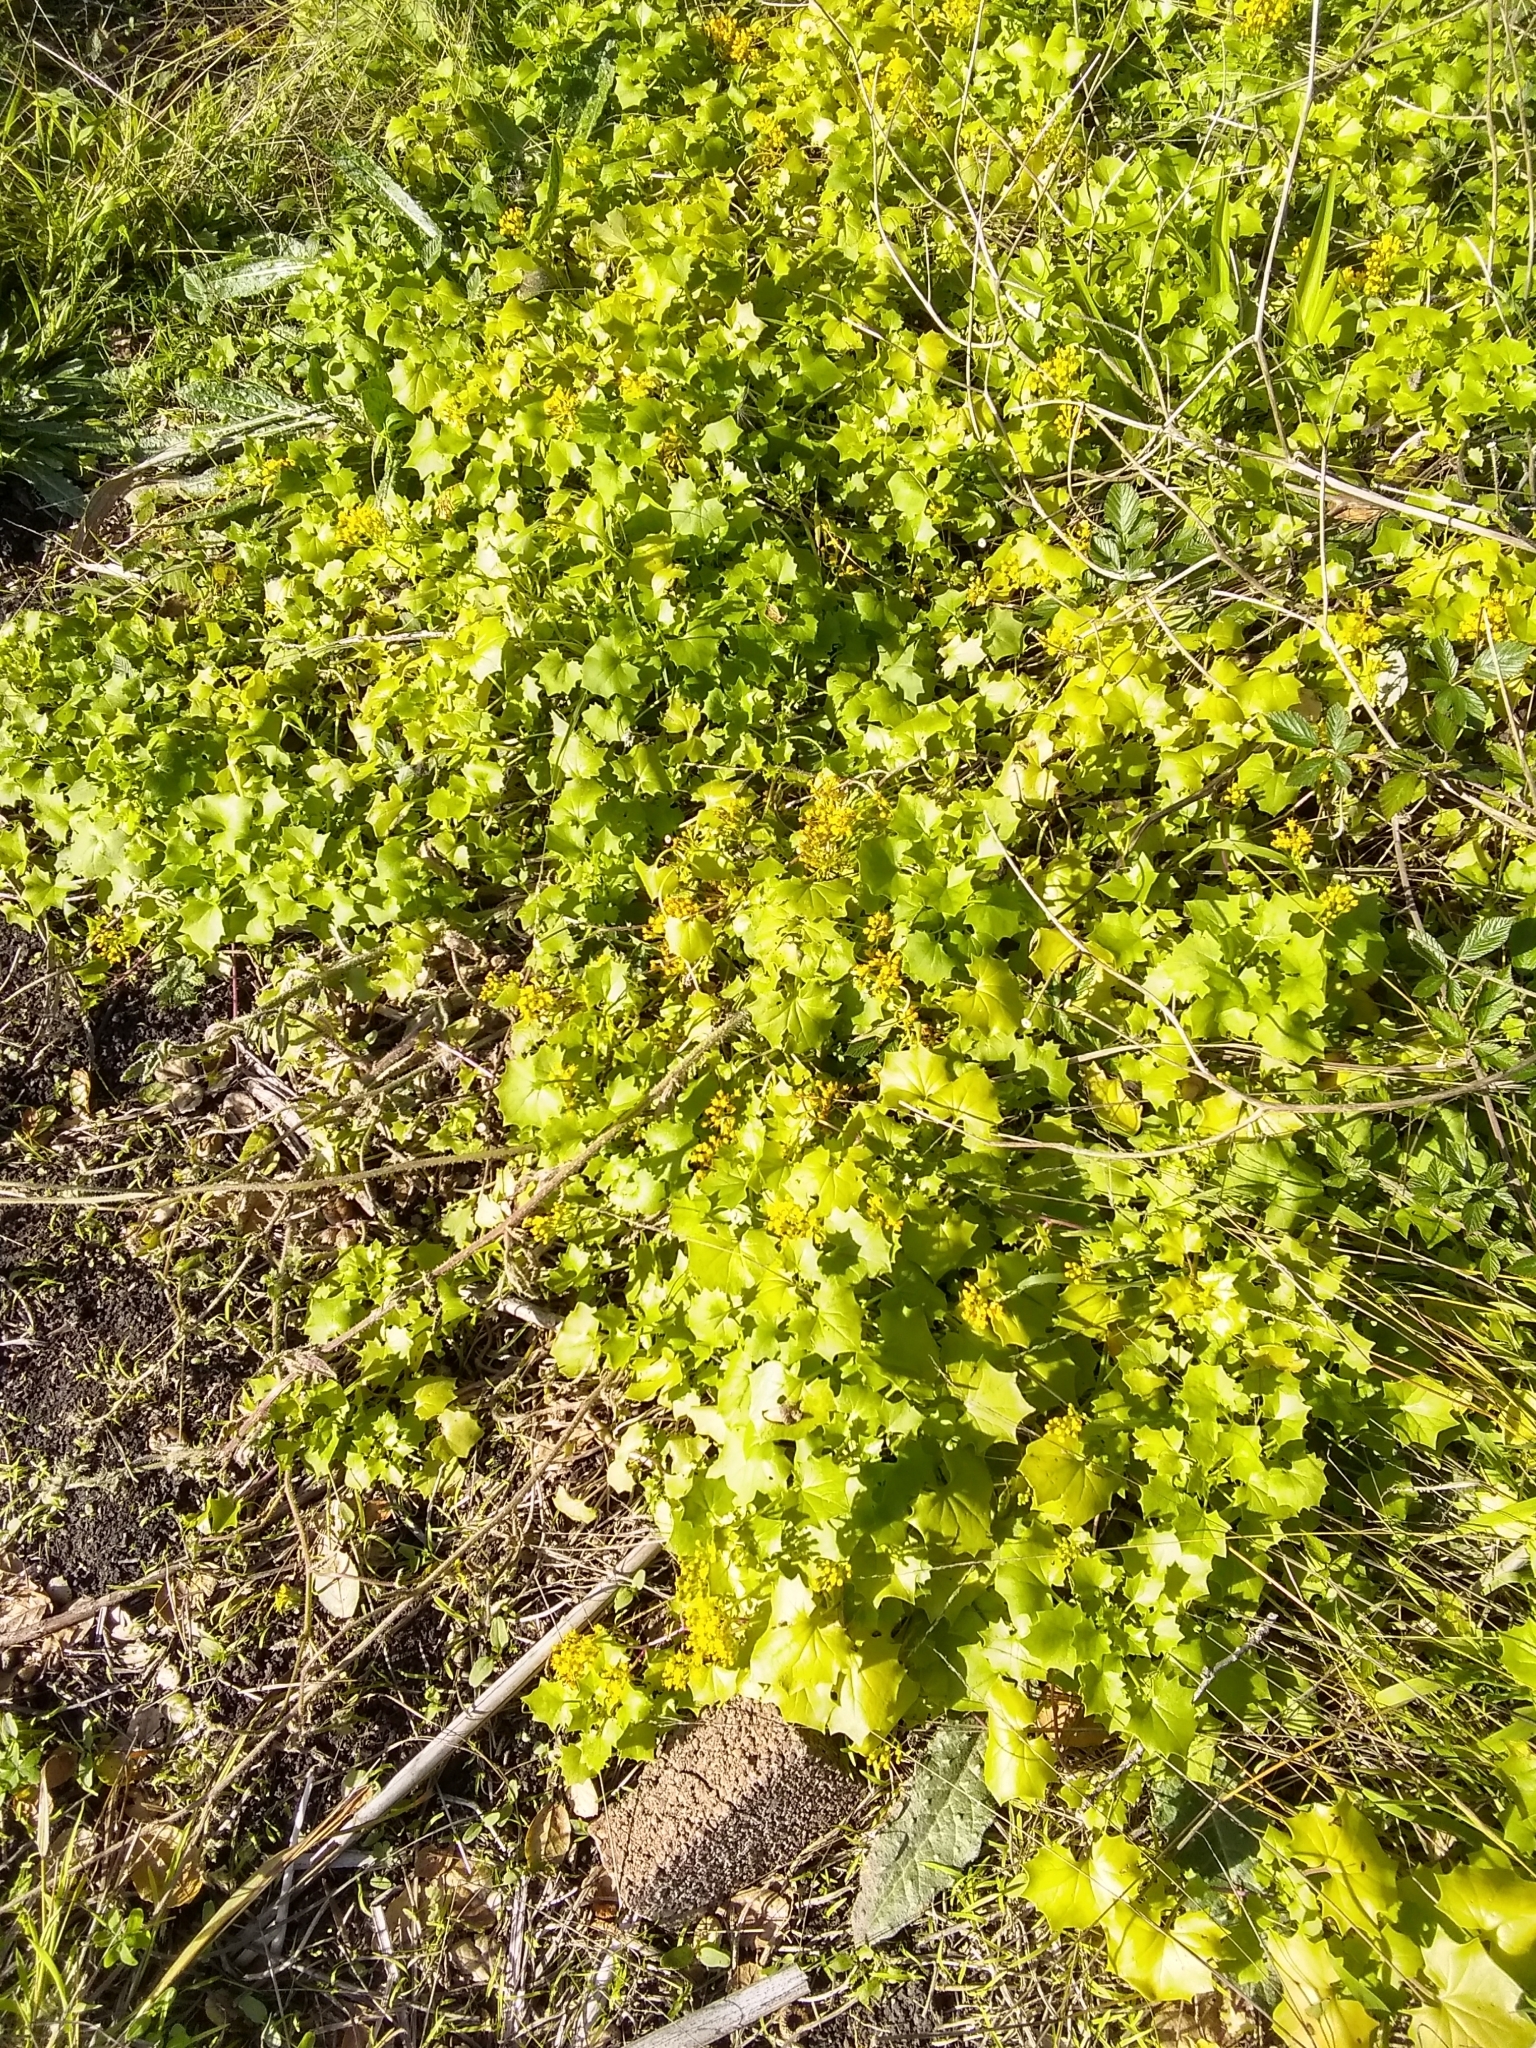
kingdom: Plantae
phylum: Tracheophyta
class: Magnoliopsida
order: Asterales
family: Asteraceae
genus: Delairea
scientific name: Delairea odorata
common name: Cape-ivy
